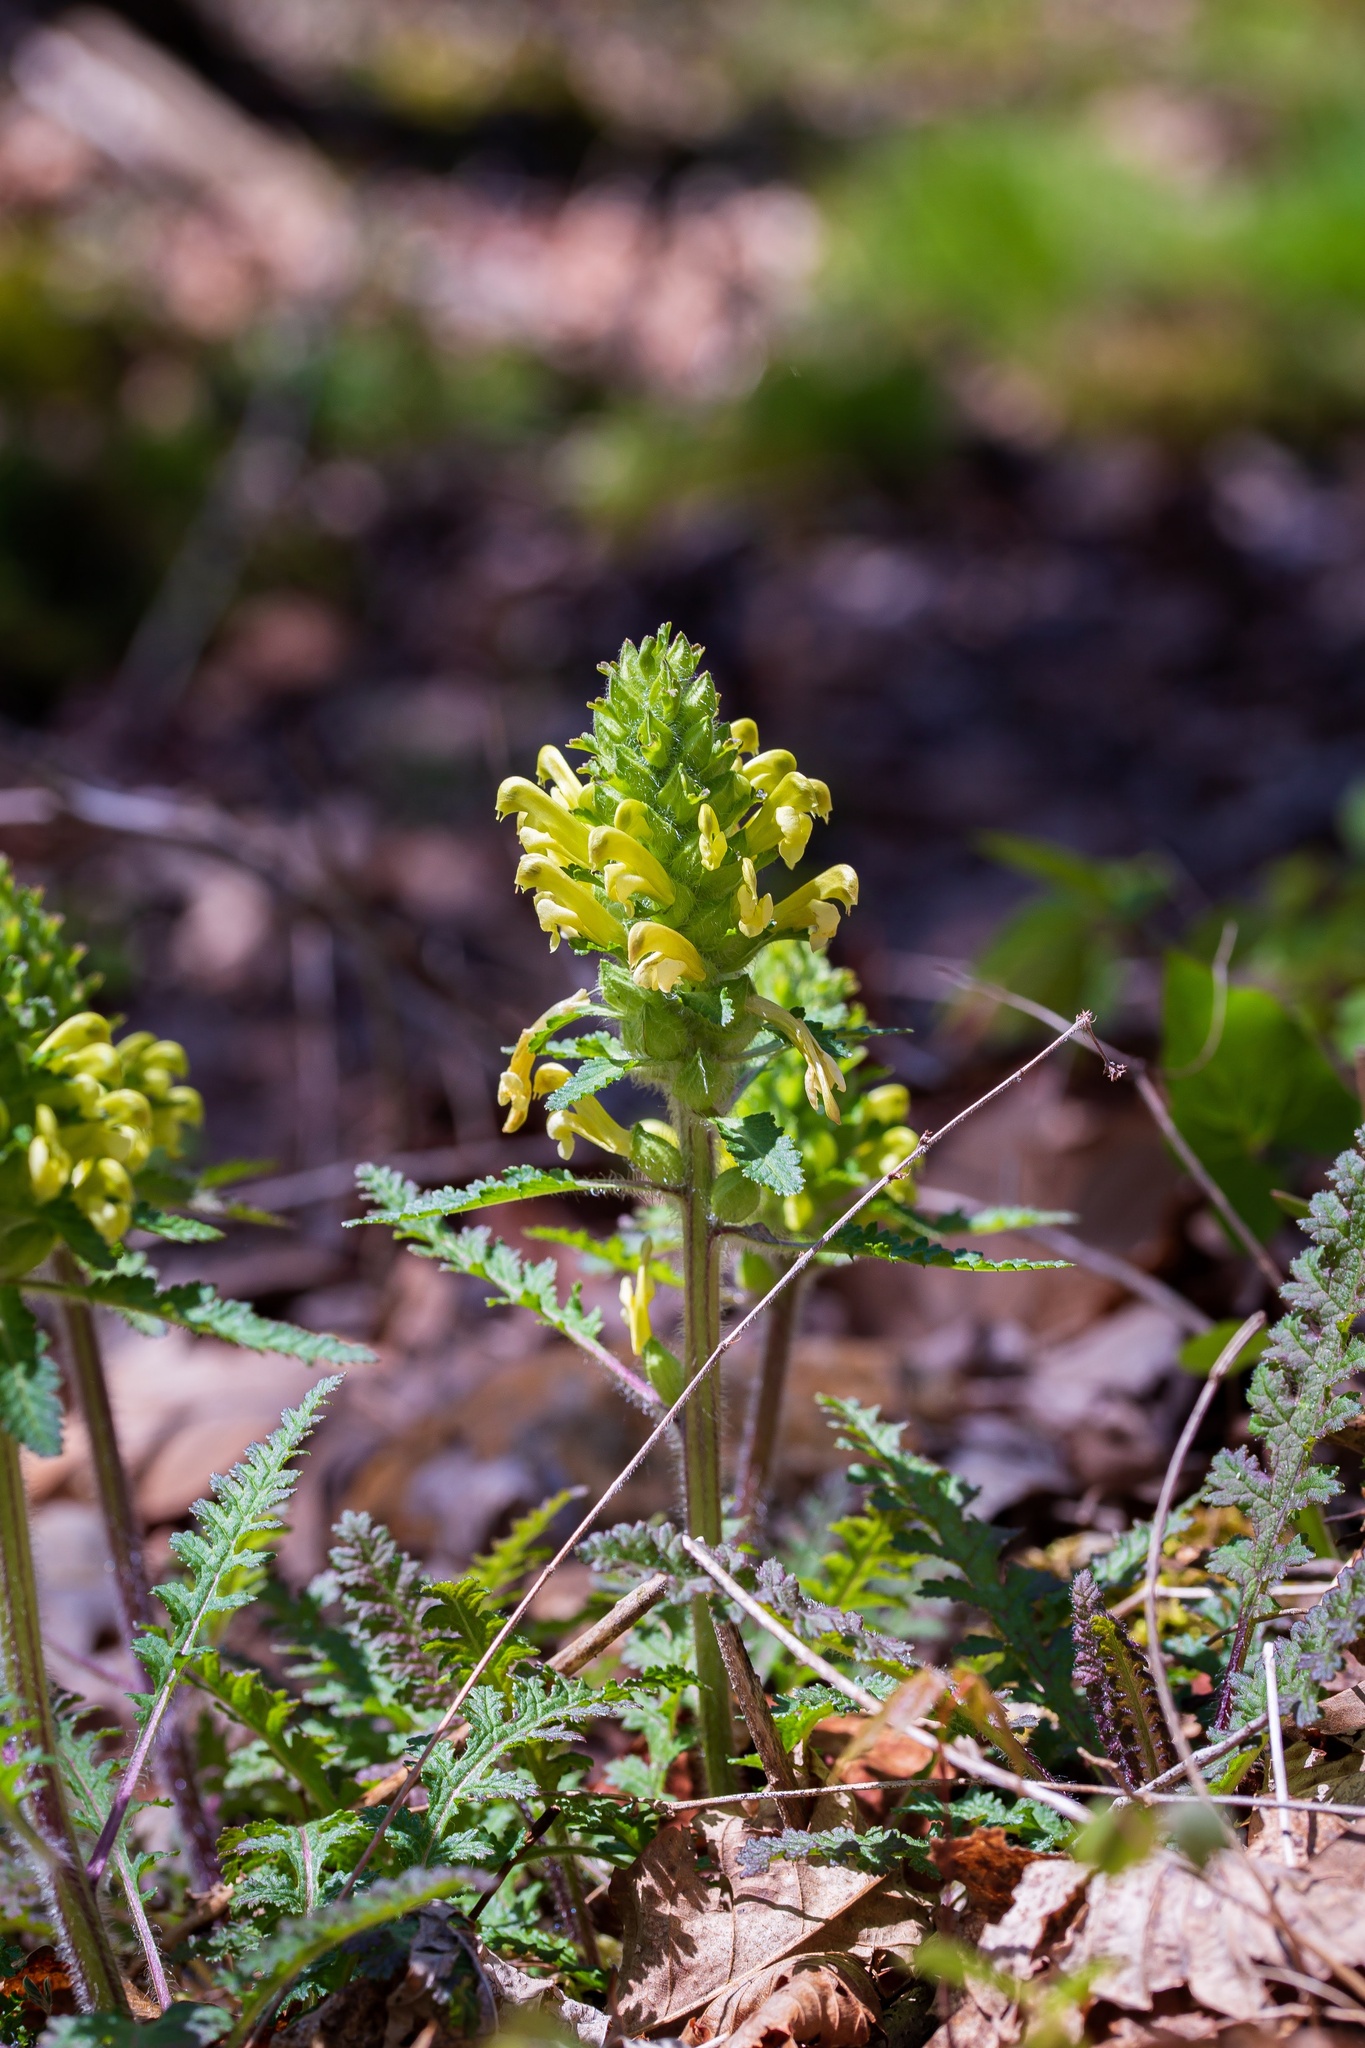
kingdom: Plantae
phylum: Tracheophyta
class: Magnoliopsida
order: Lamiales
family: Orobanchaceae
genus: Pedicularis
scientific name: Pedicularis canadensis
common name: Early lousewort
